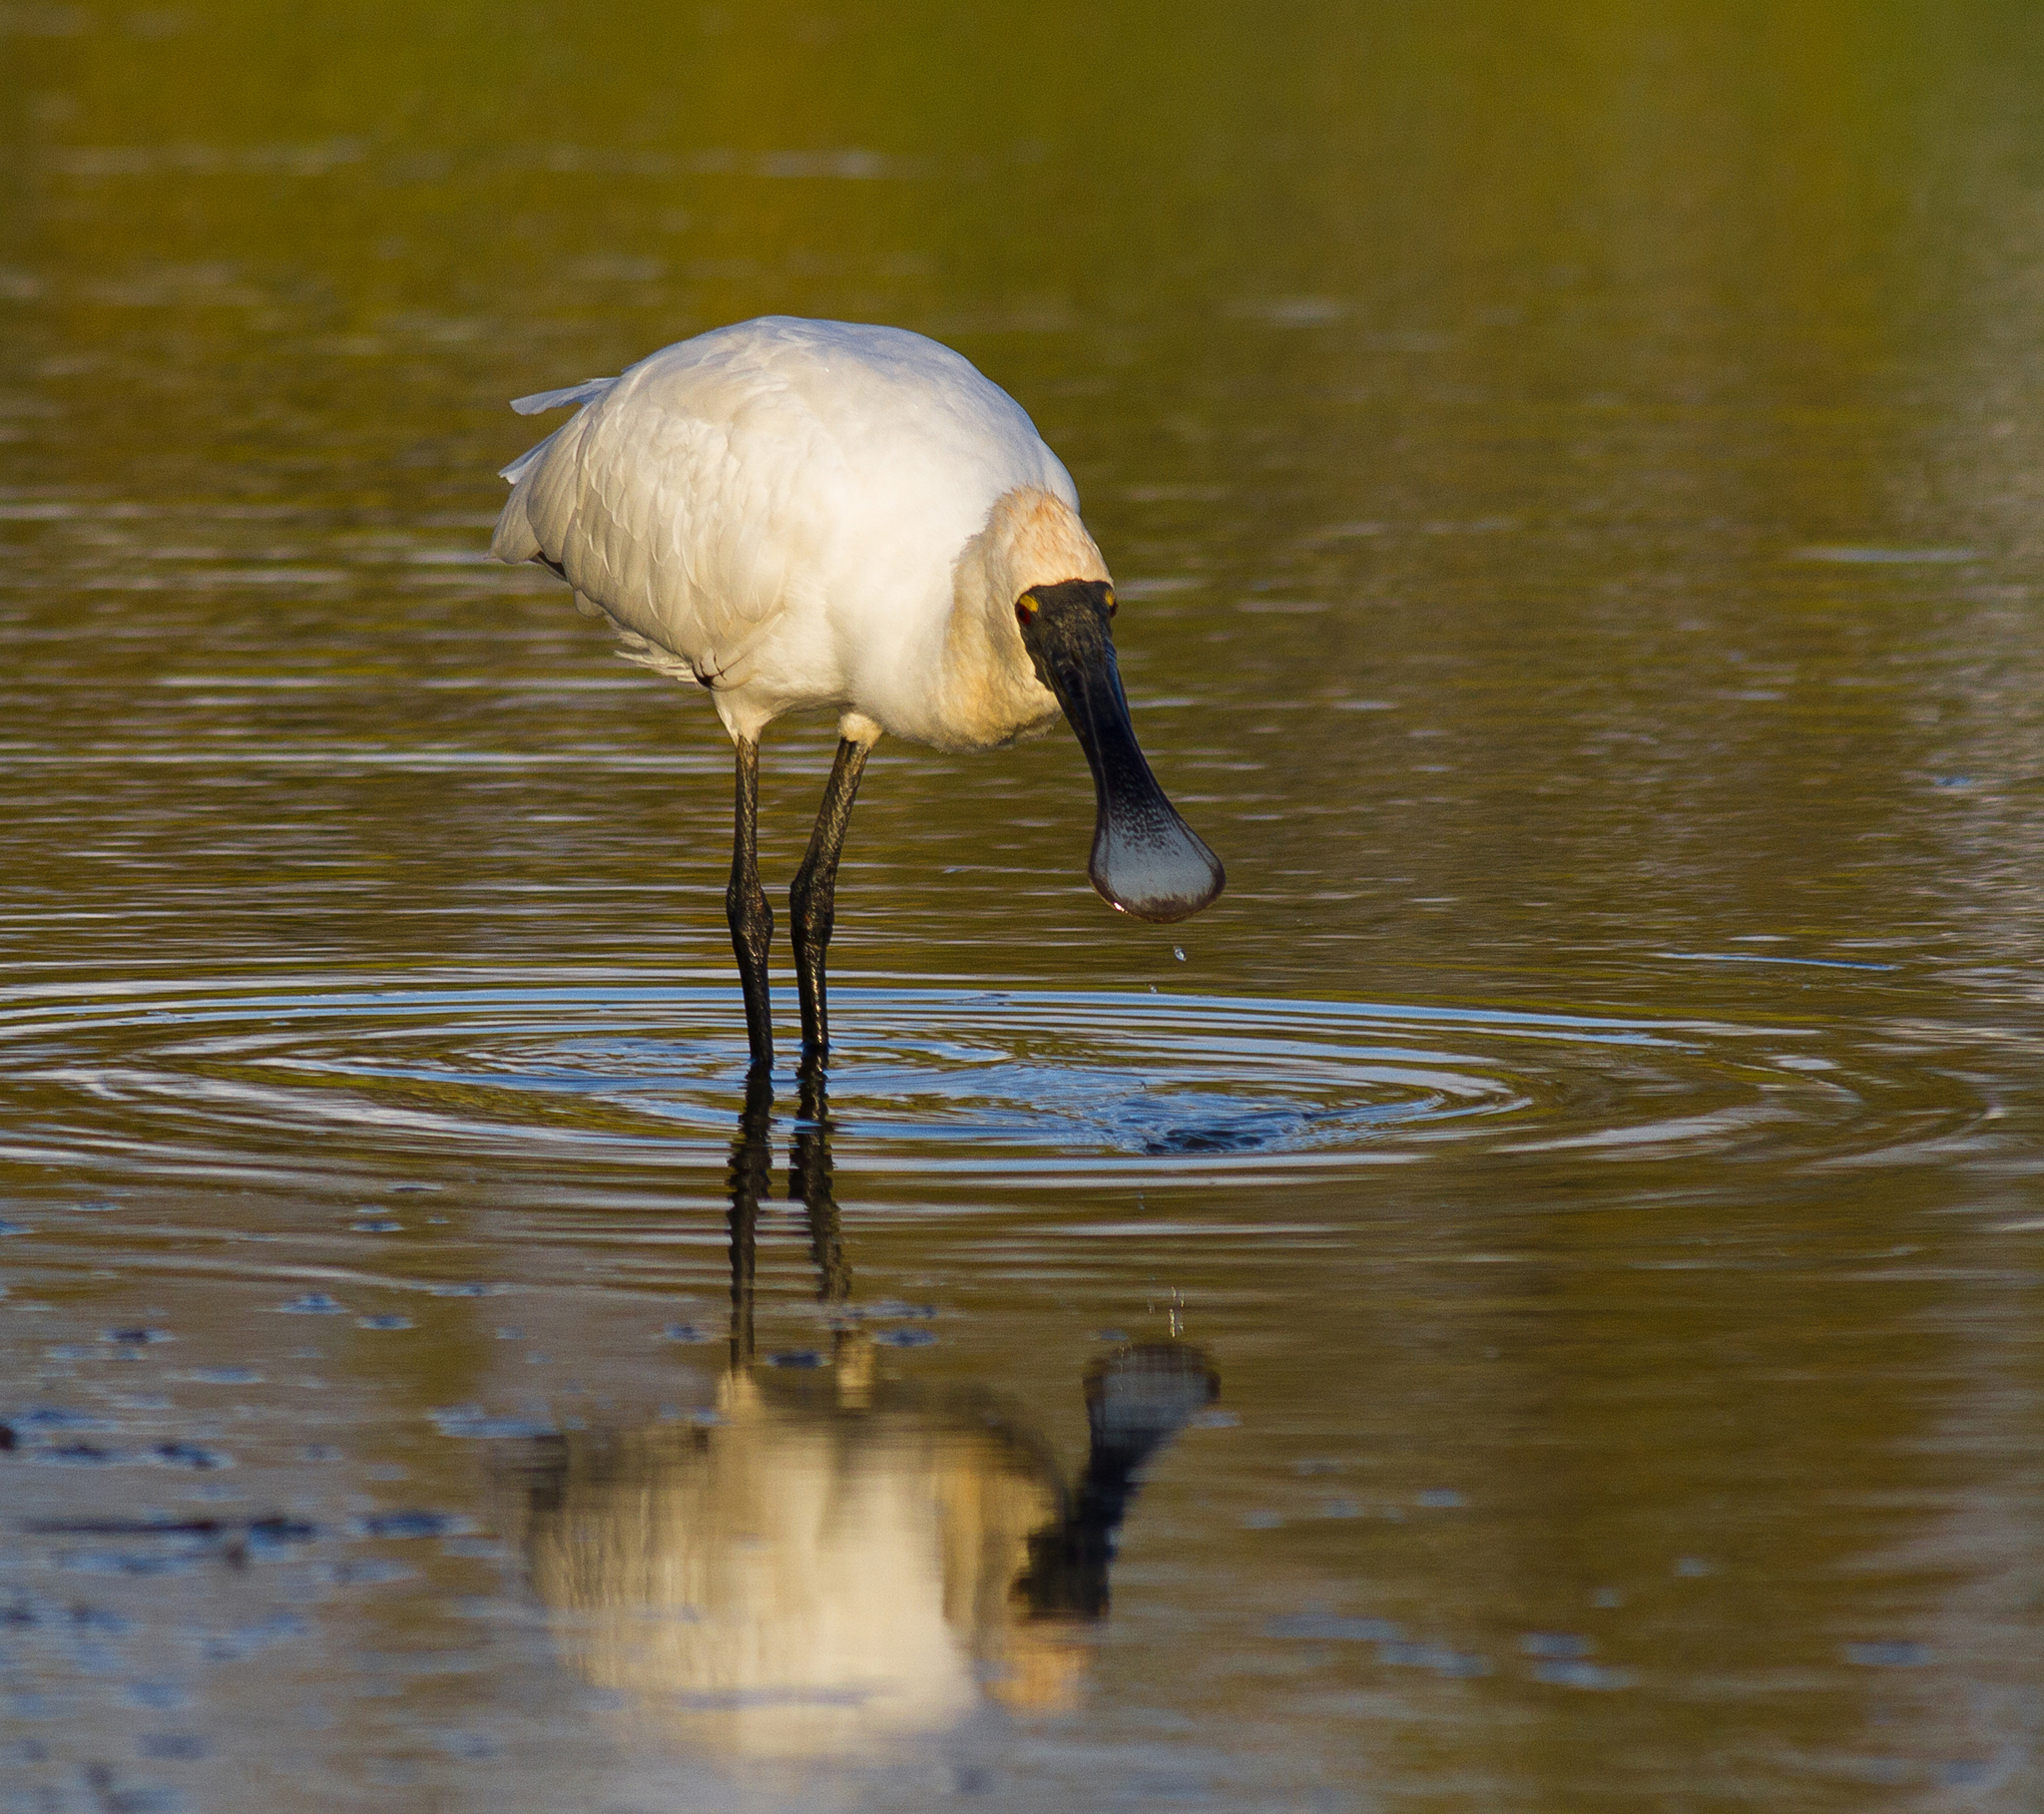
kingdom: Animalia
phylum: Chordata
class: Aves
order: Pelecaniformes
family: Threskiornithidae
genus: Platalea
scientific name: Platalea regia
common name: Royal spoonbill
